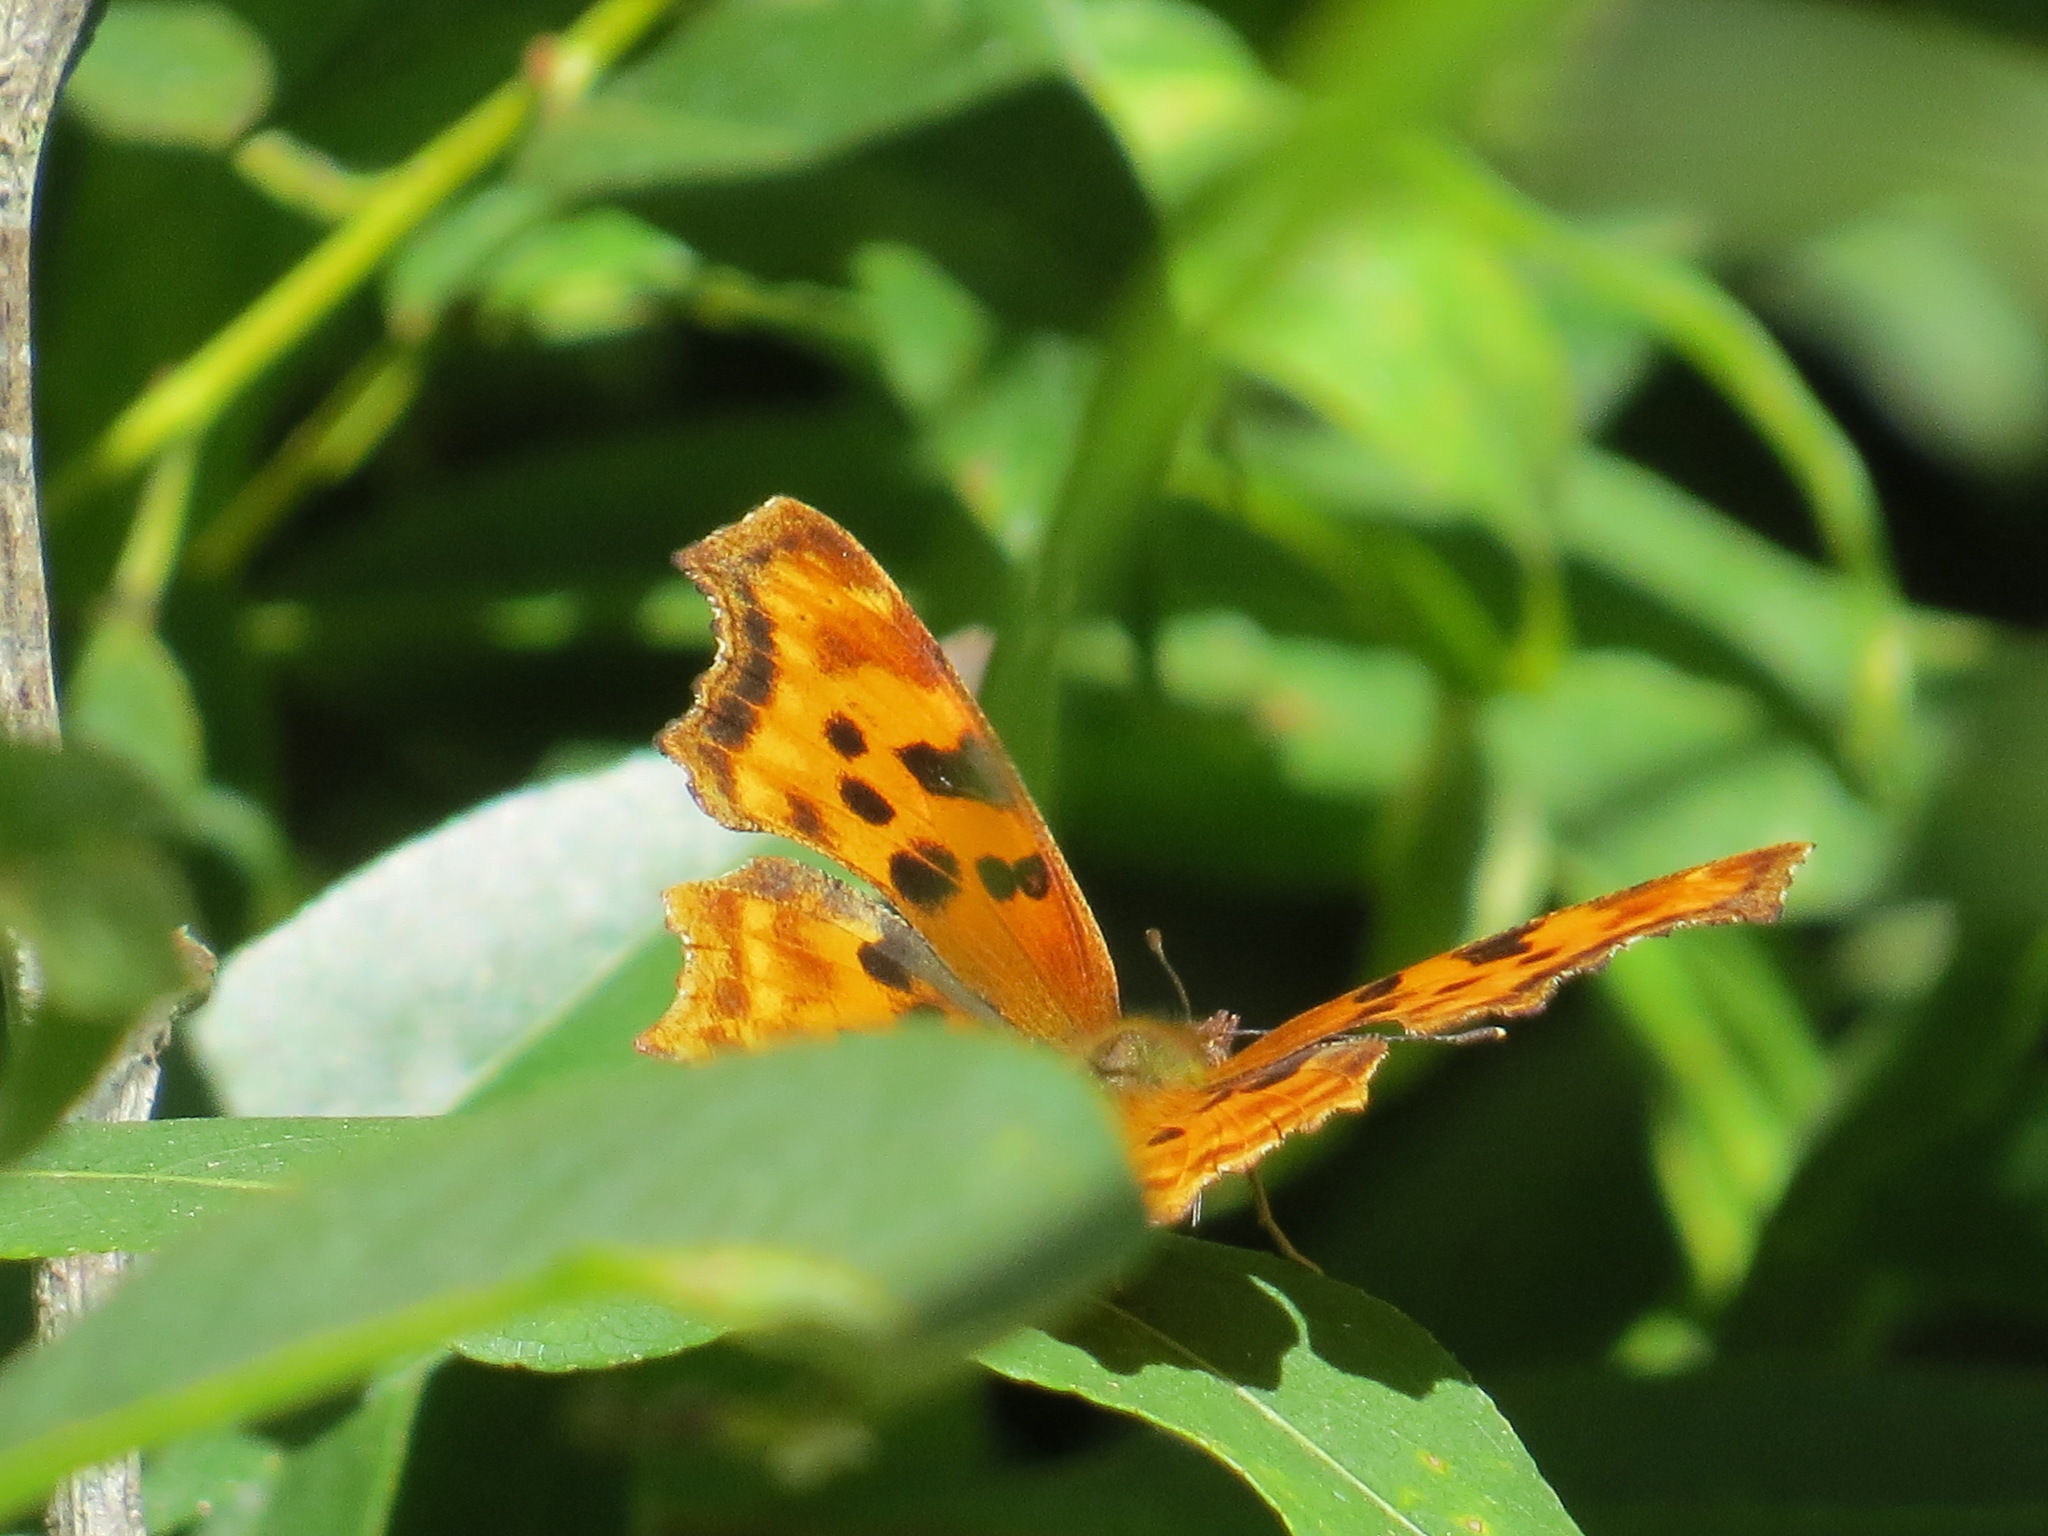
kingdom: Animalia
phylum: Arthropoda
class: Insecta
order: Lepidoptera
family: Nymphalidae
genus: Polygonia
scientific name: Polygonia satyrus
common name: Satyr angle wing
